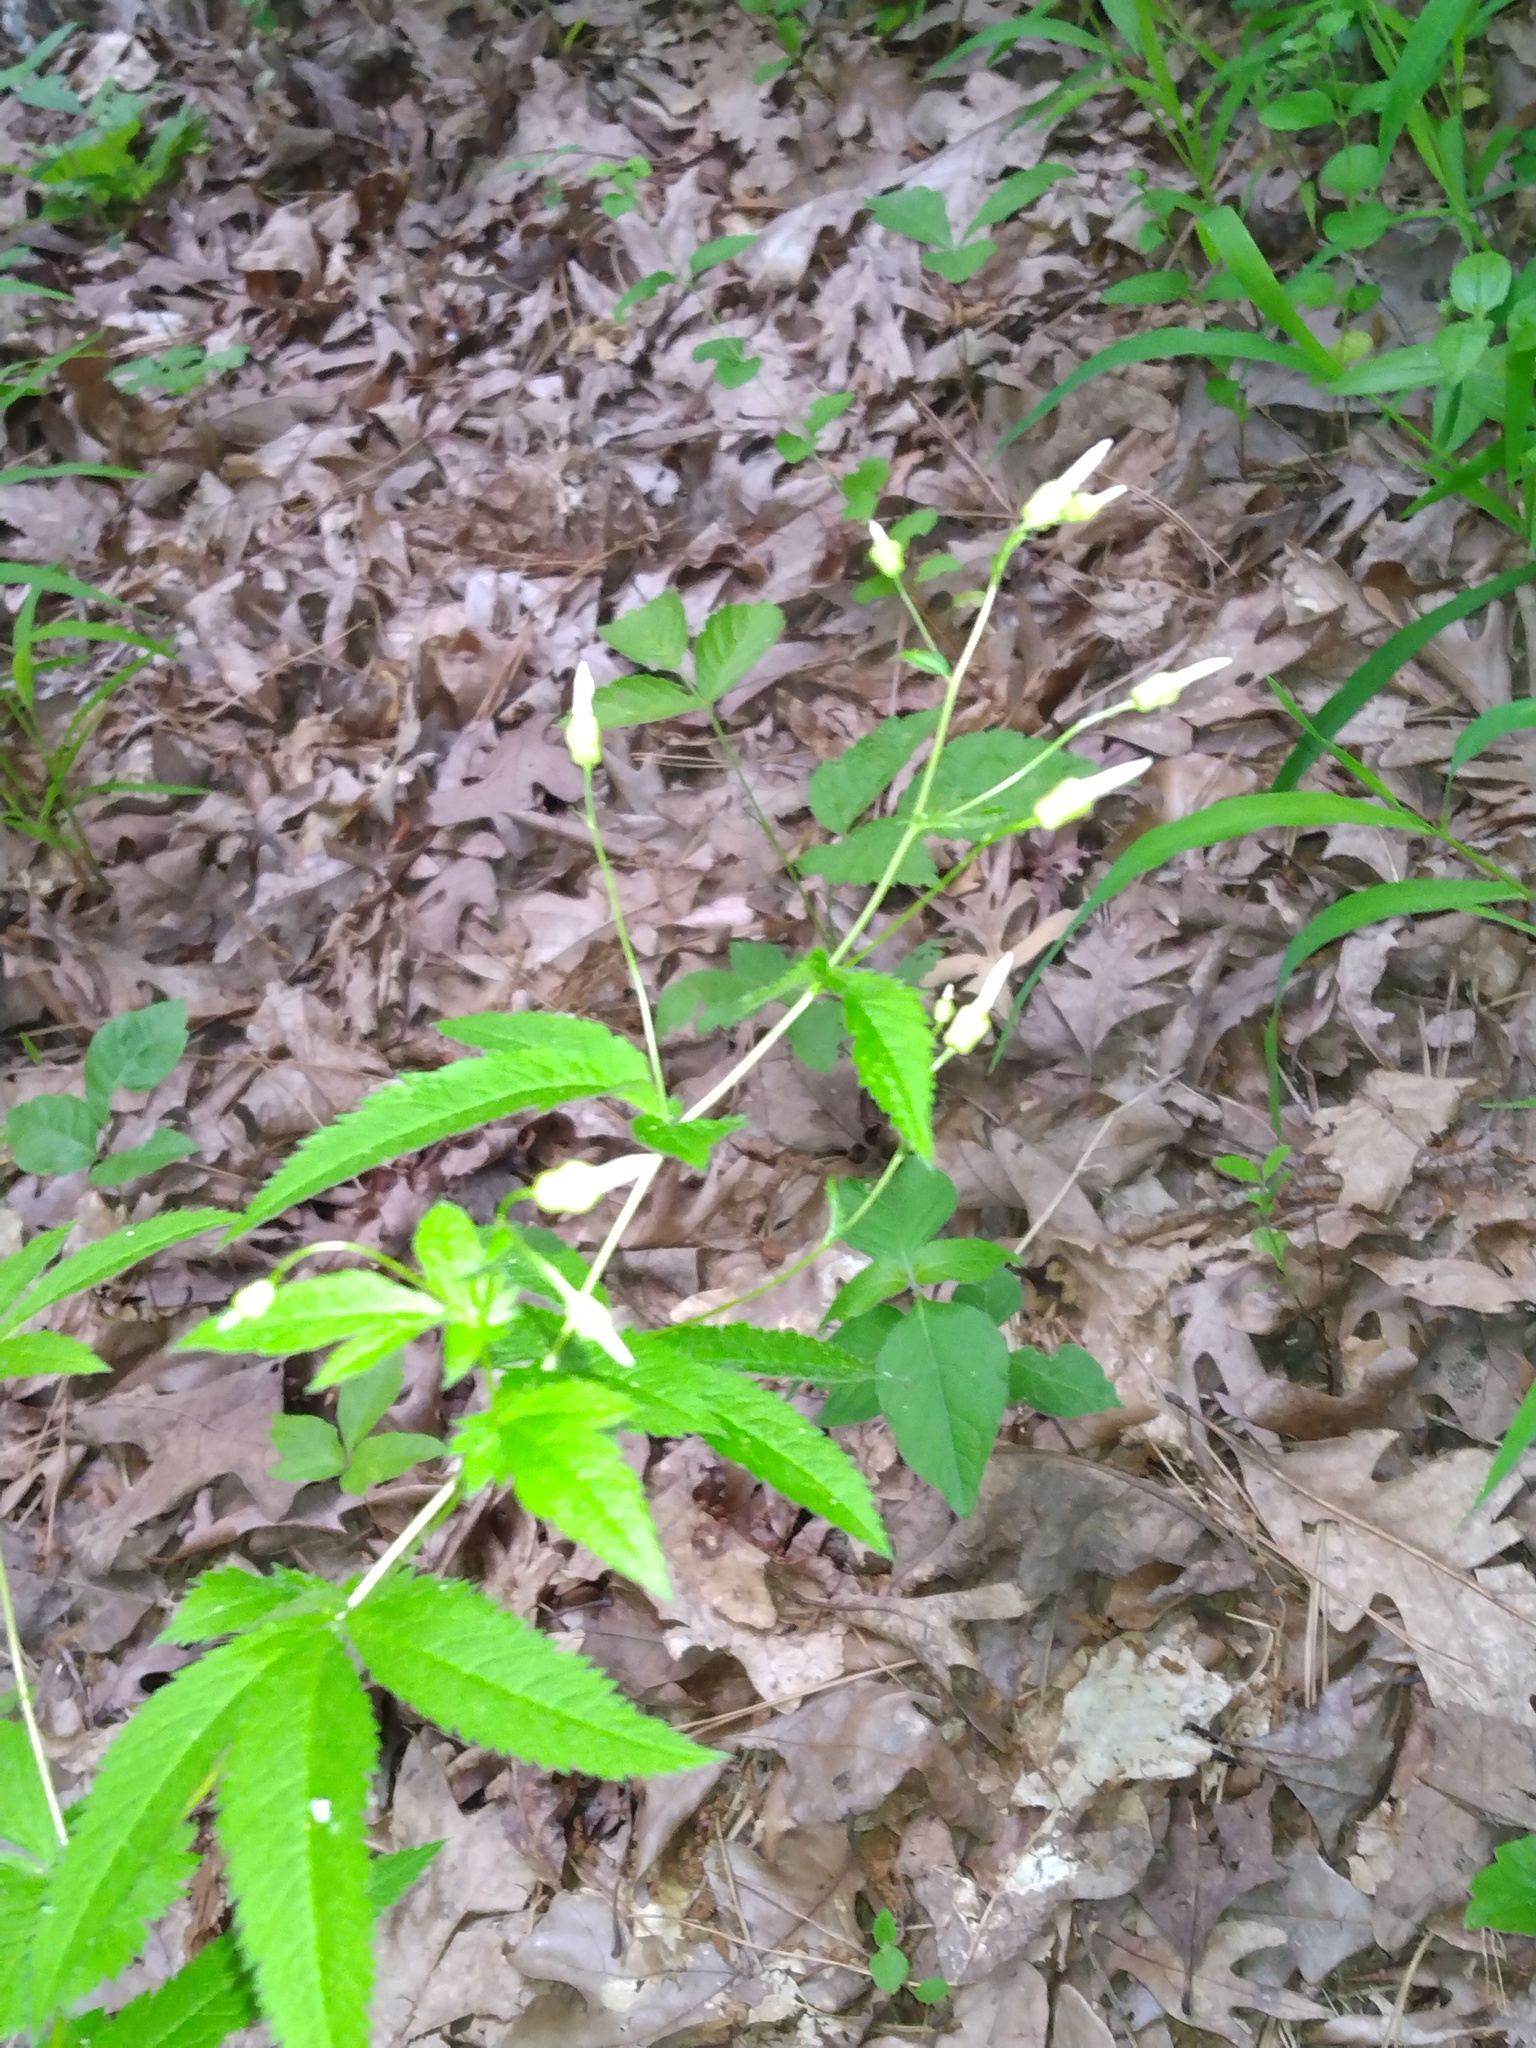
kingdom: Plantae
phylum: Tracheophyta
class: Magnoliopsida
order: Rosales
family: Rosaceae
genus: Gillenia
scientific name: Gillenia stipulata
